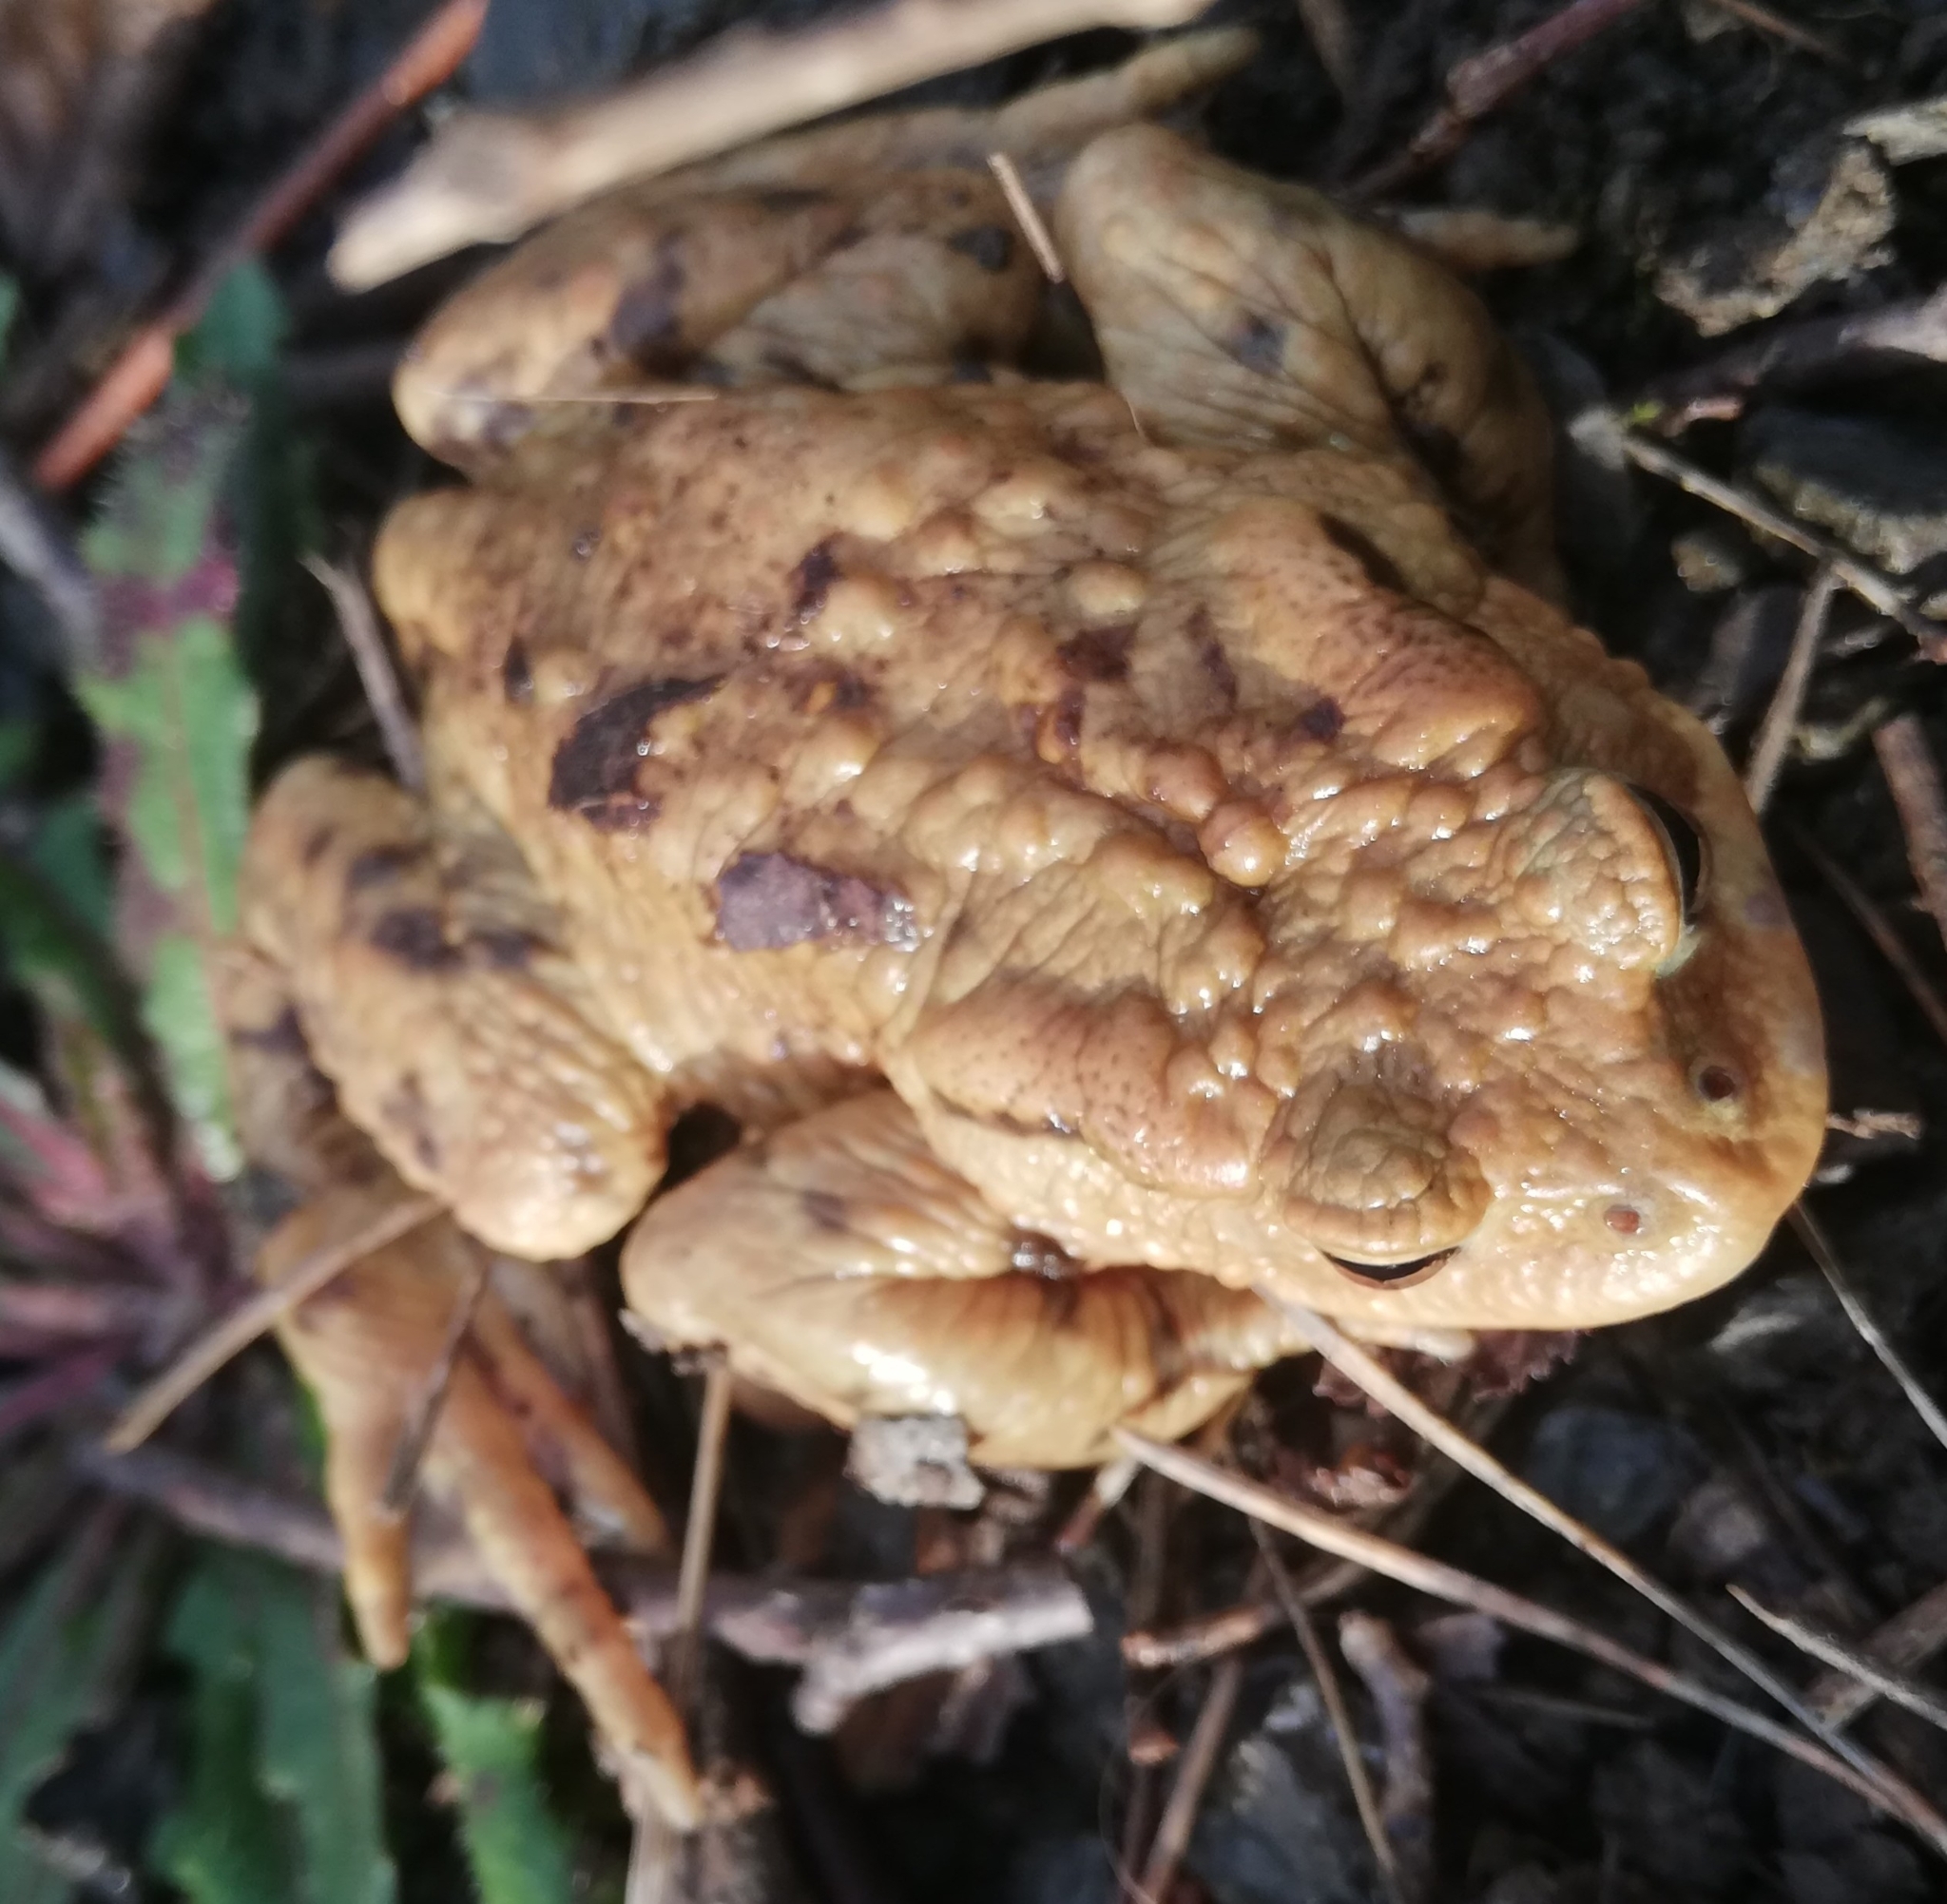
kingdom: Animalia
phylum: Chordata
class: Amphibia
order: Anura
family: Bufonidae
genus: Bufo
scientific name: Bufo bufo
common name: Common toad
